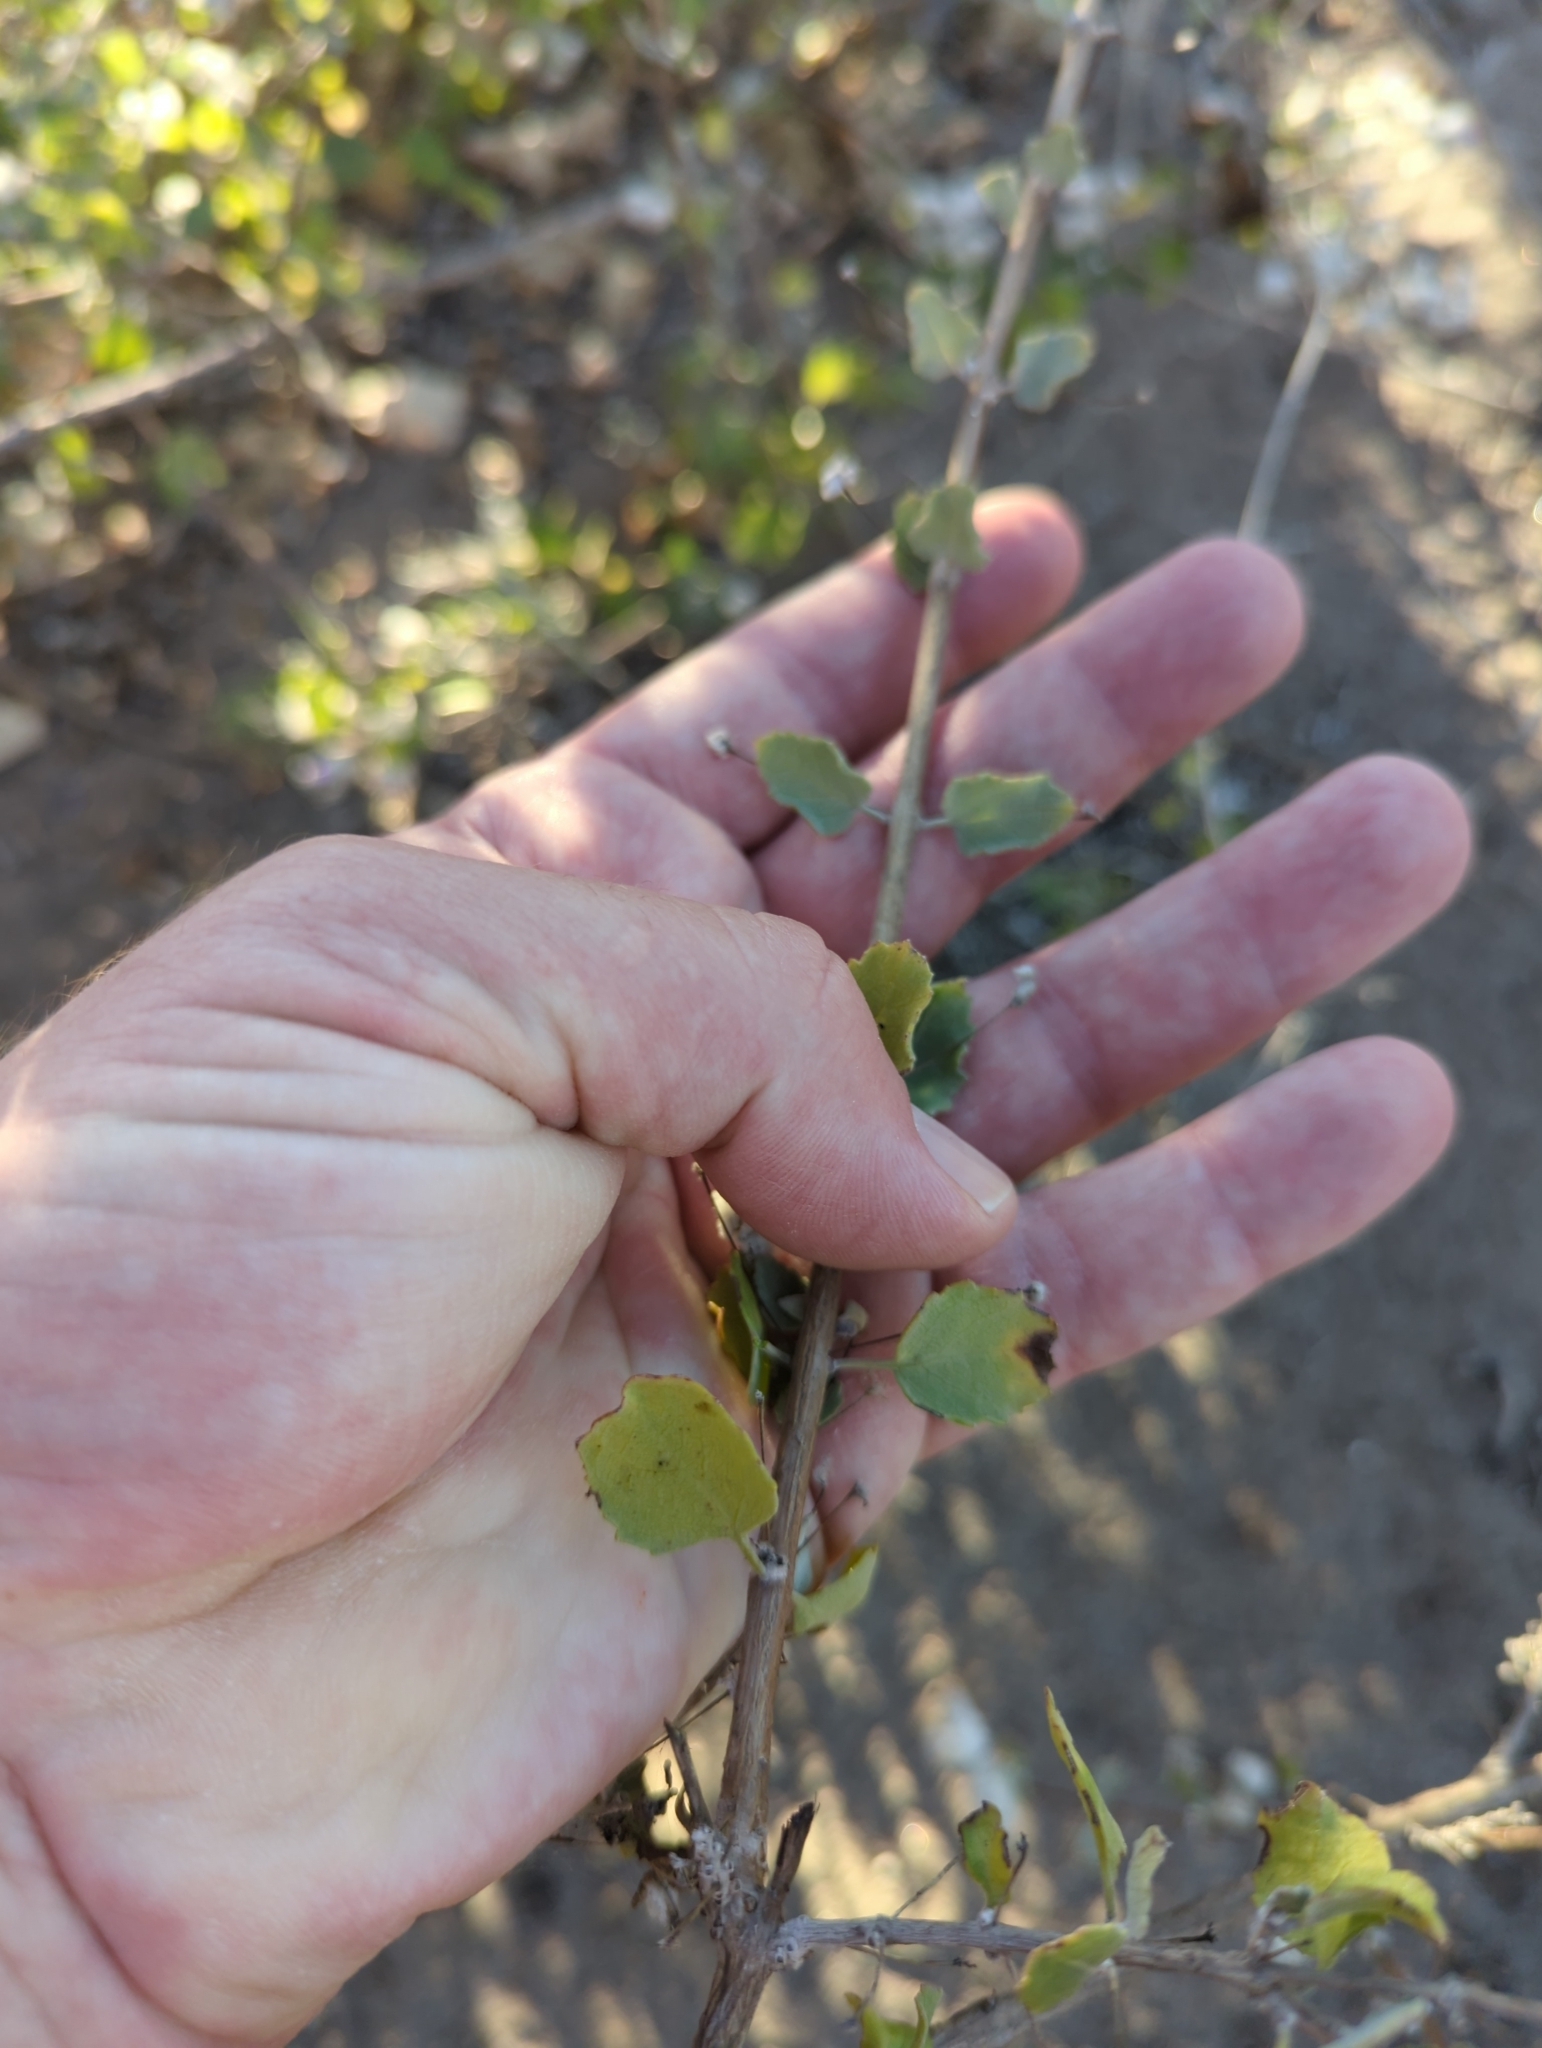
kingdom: Plantae
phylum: Tracheophyta
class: Magnoliopsida
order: Lamiales
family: Lamiaceae
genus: Condea
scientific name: Condea laniflora
